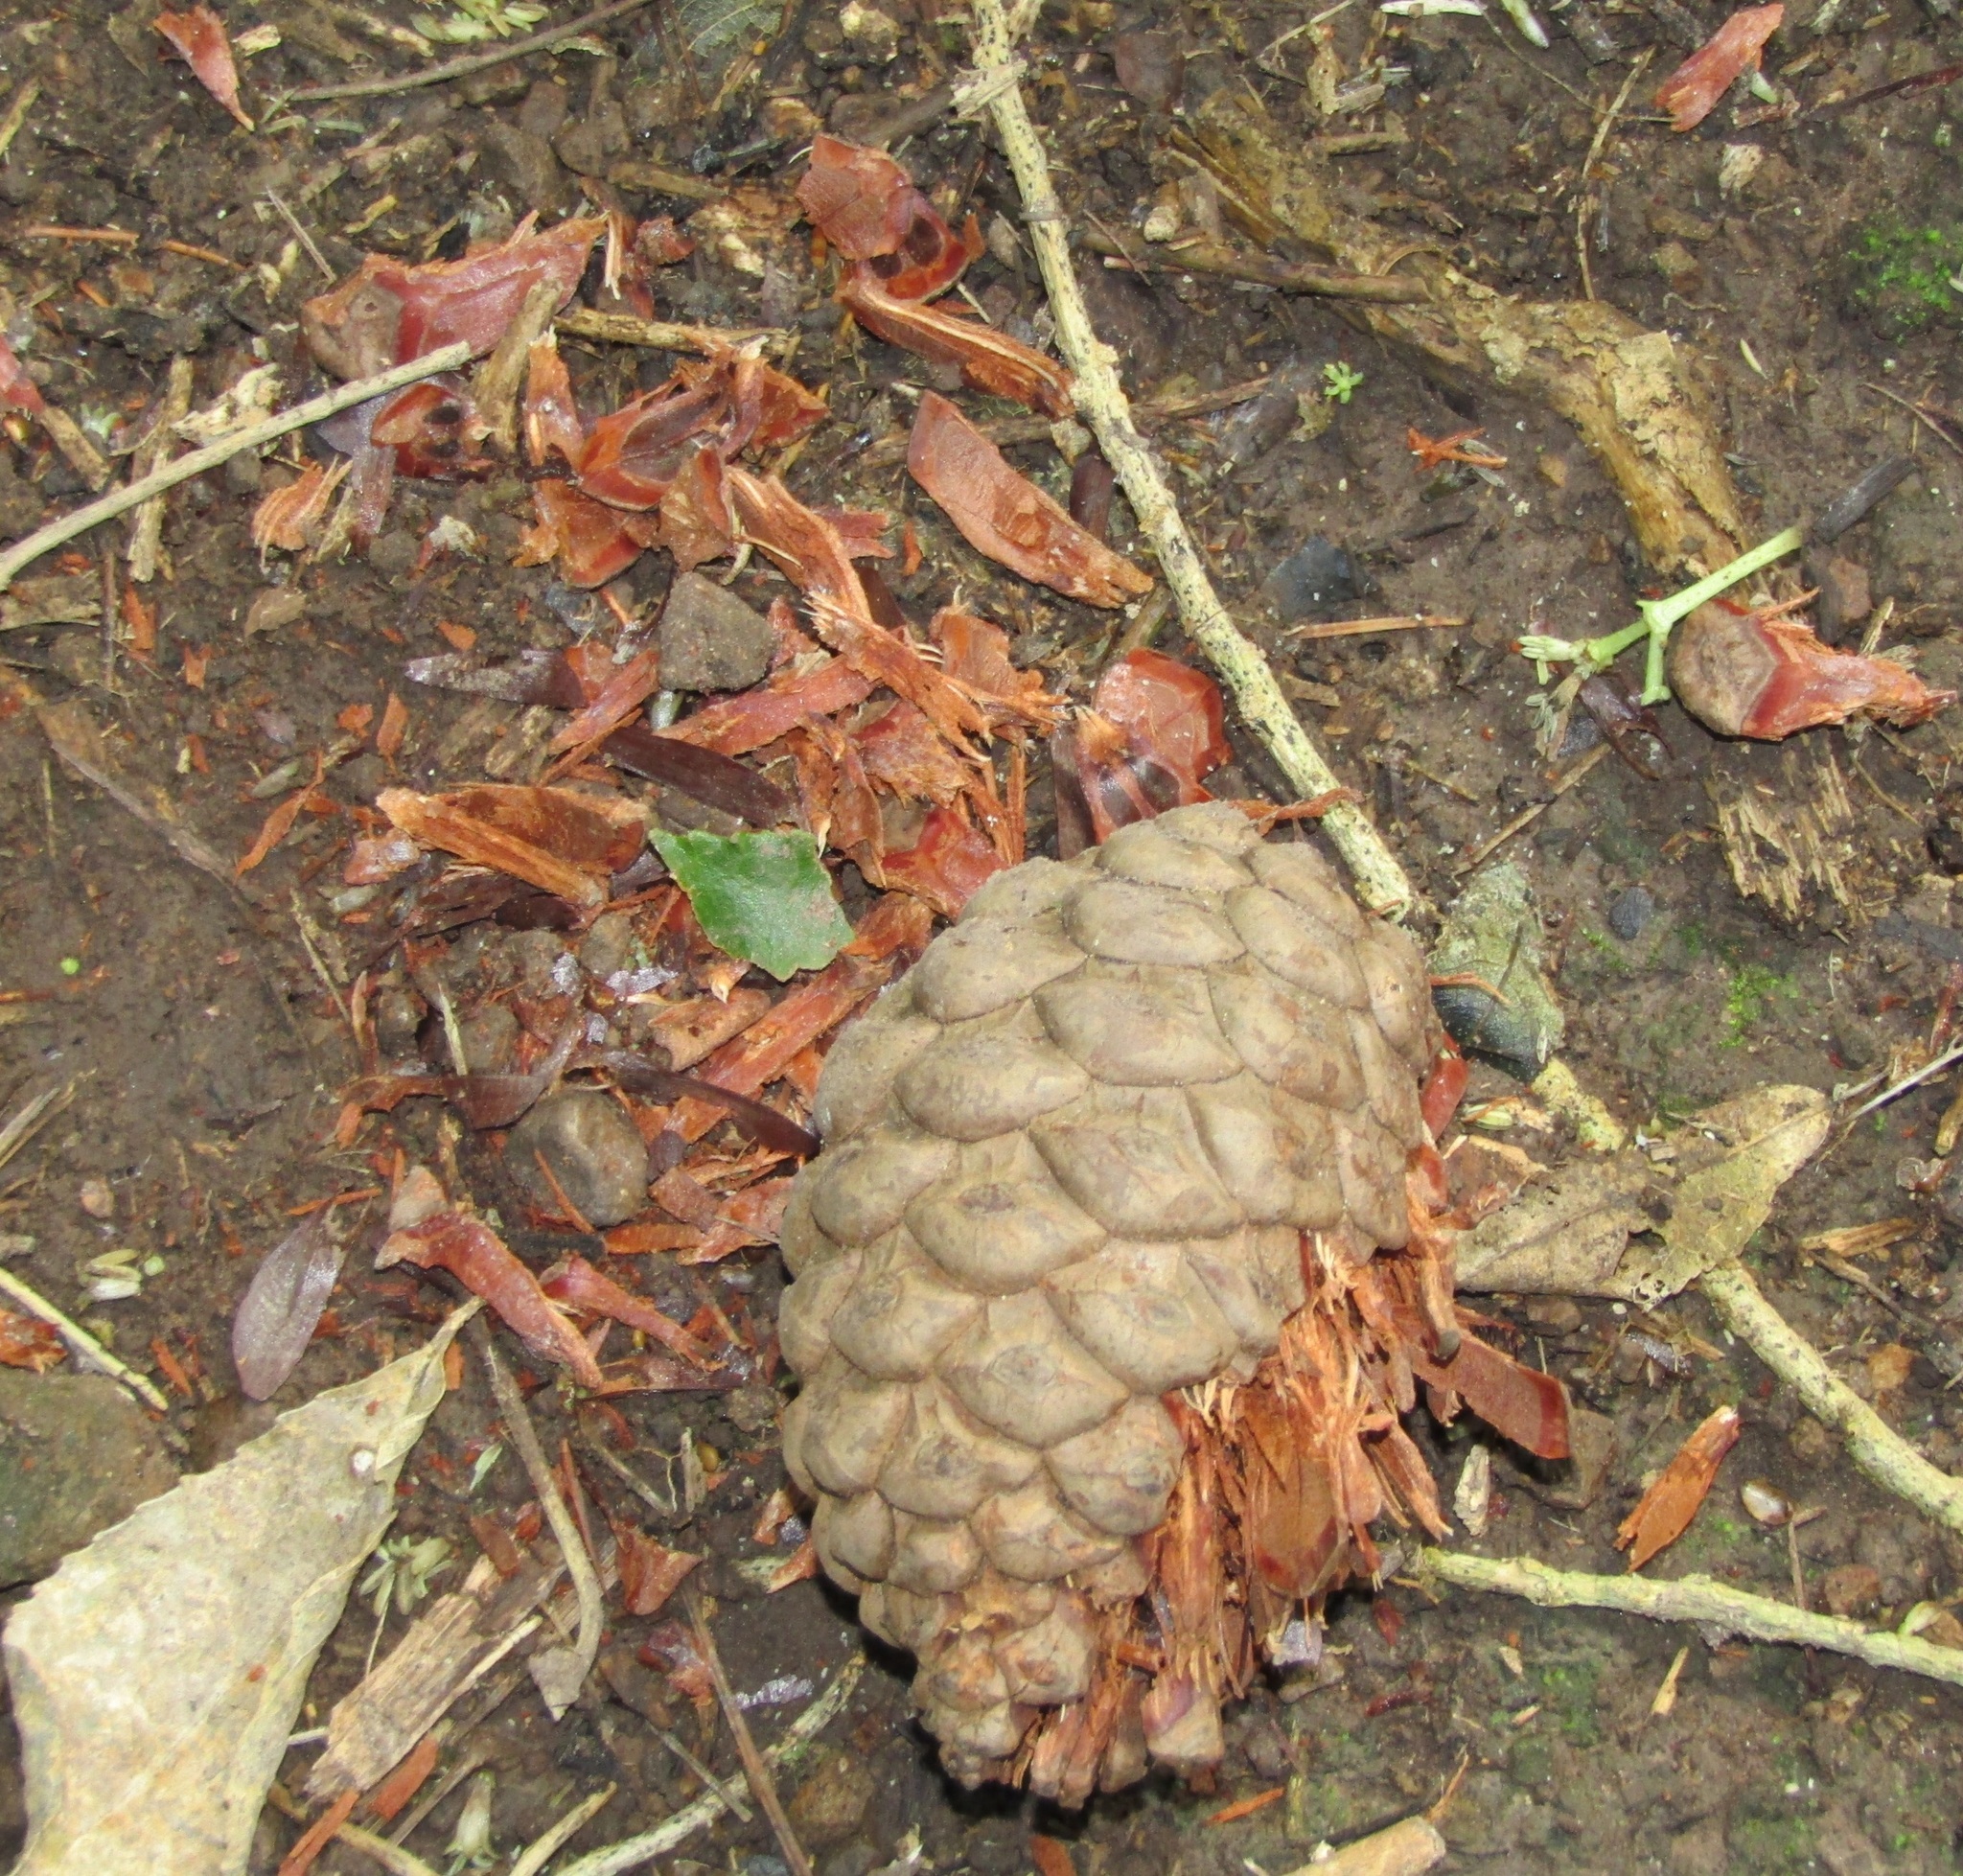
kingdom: Animalia
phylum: Chordata
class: Aves
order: Psittaciformes
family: Psittacidae
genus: Nestor
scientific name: Nestor meridionalis
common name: New zealand kaka
